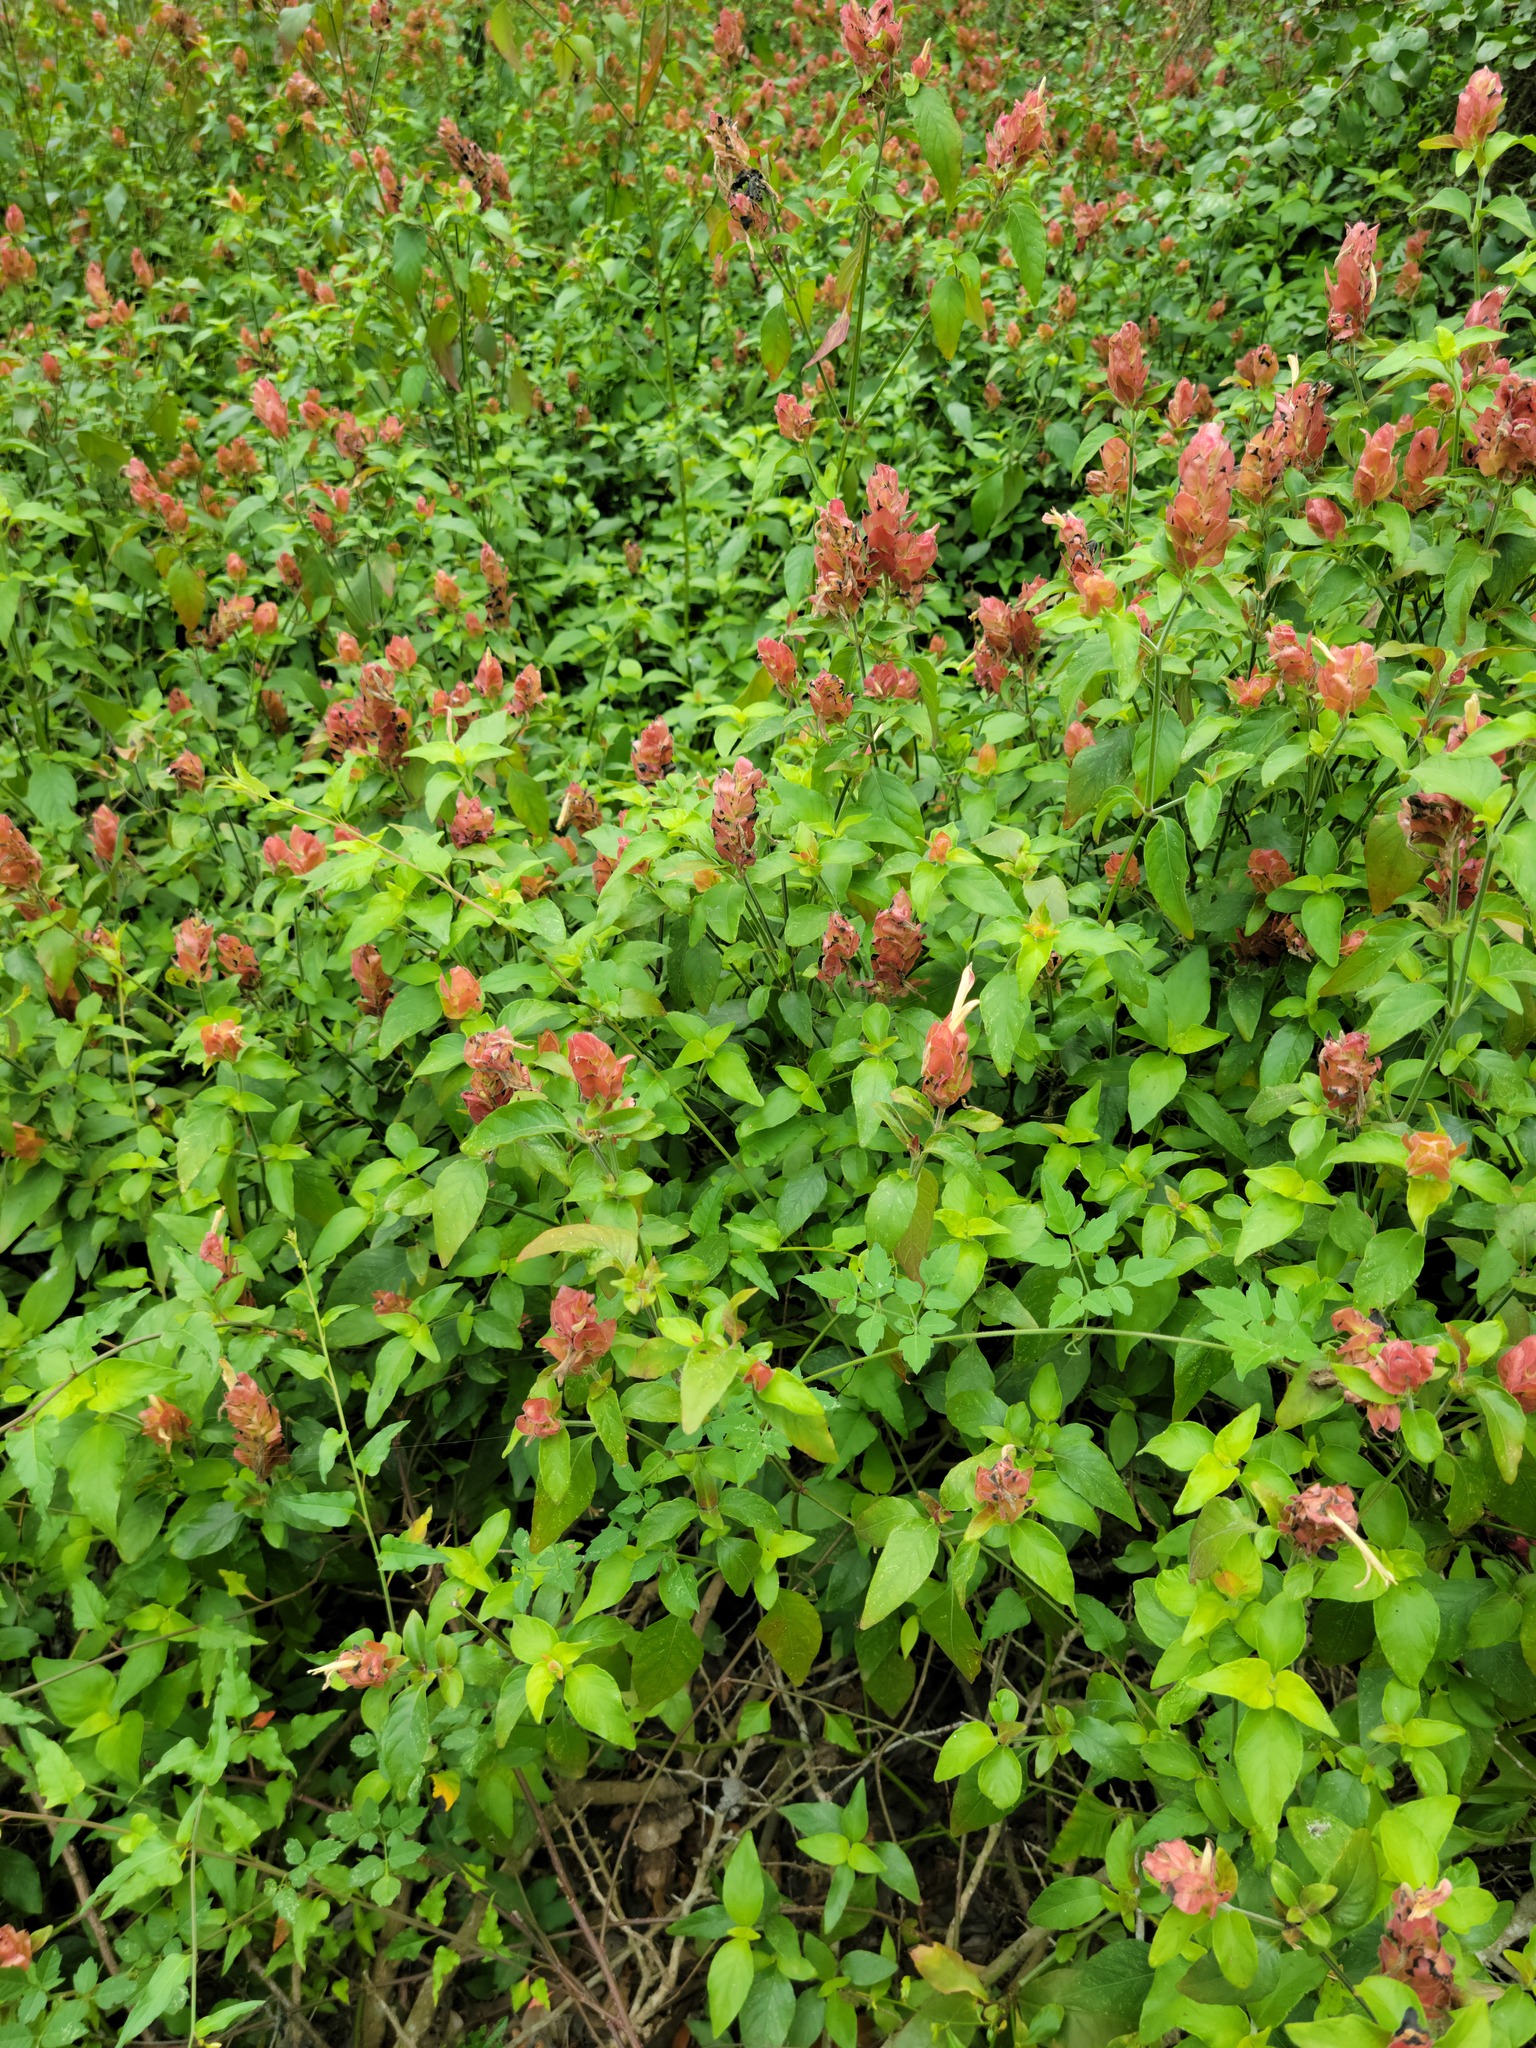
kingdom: Plantae
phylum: Tracheophyta
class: Magnoliopsida
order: Lamiales
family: Acanthaceae
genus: Justicia
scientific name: Justicia brandegeeana
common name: Shrimpplant
